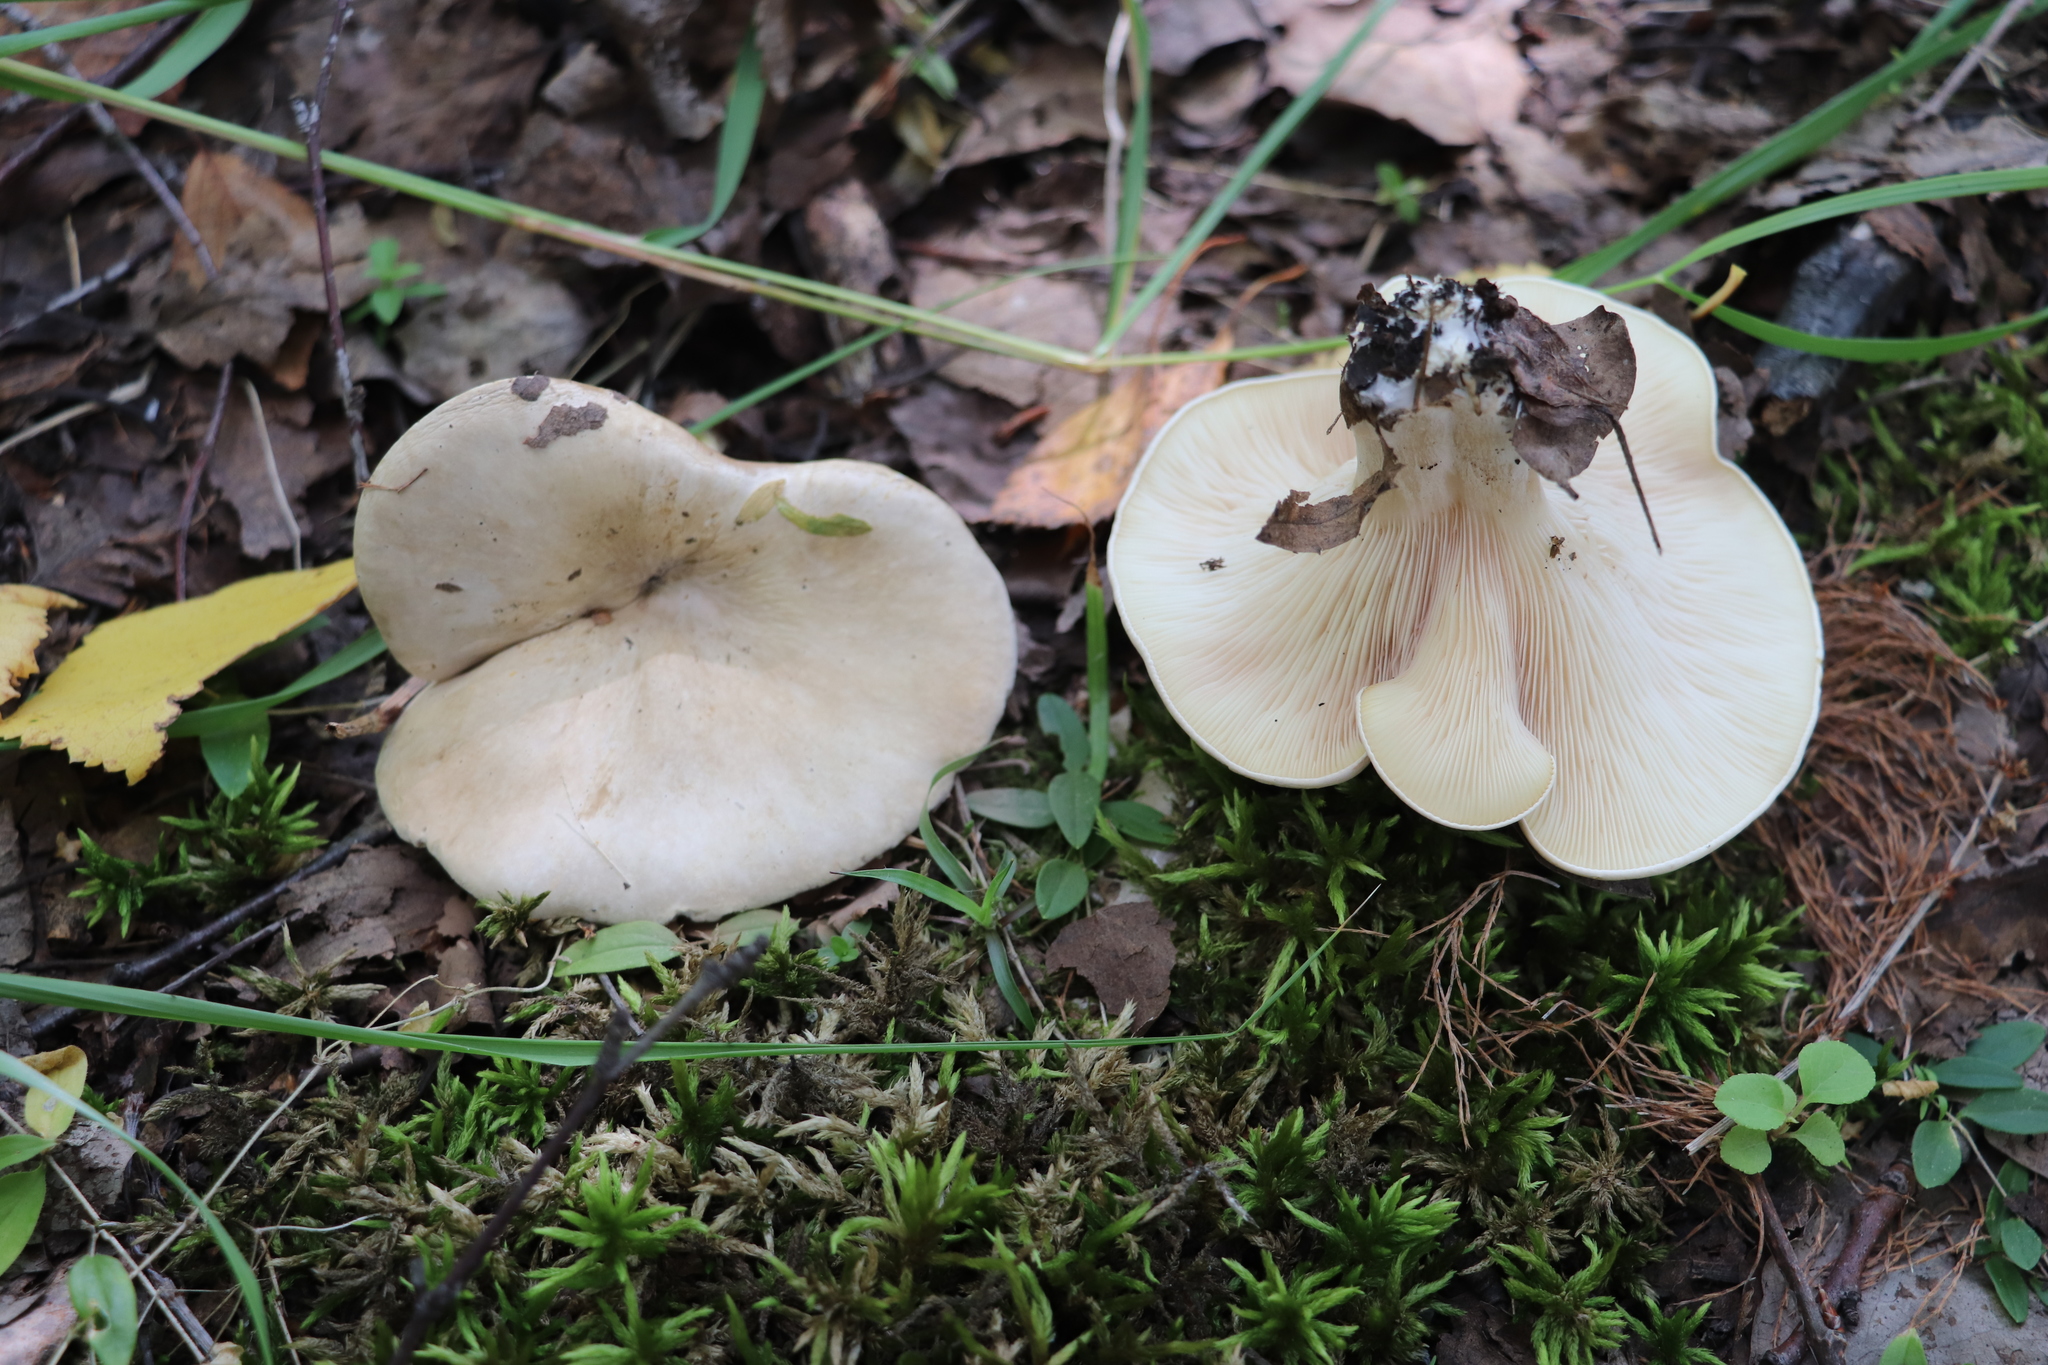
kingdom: Fungi
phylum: Basidiomycota
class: Agaricomycetes
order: Agaricales
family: Entolomataceae
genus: Clitopilus
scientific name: Clitopilus prunulus
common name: The miller
